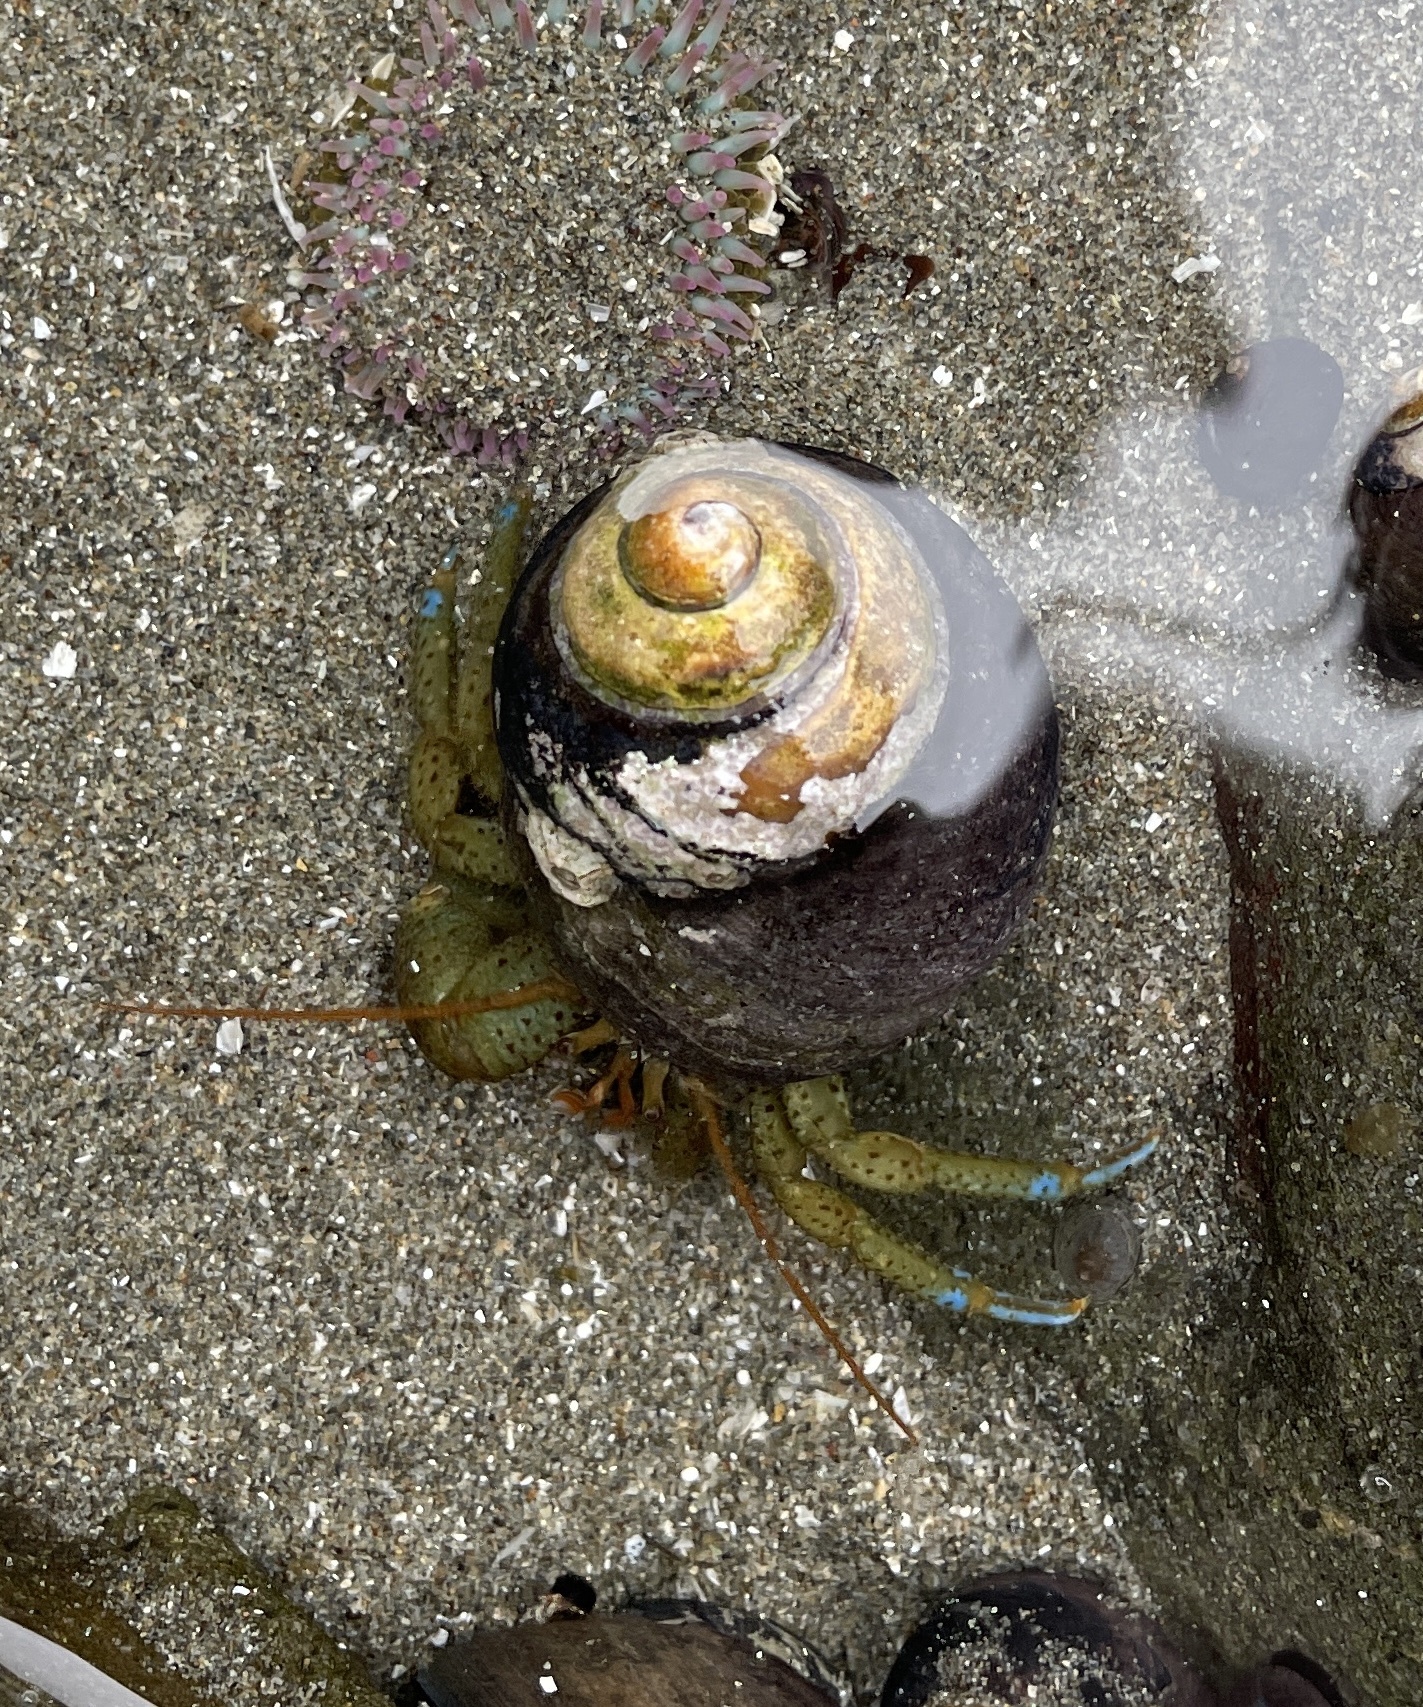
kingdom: Animalia
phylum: Arthropoda
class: Malacostraca
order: Decapoda
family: Paguridae
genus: Pagurus
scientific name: Pagurus samuelis
